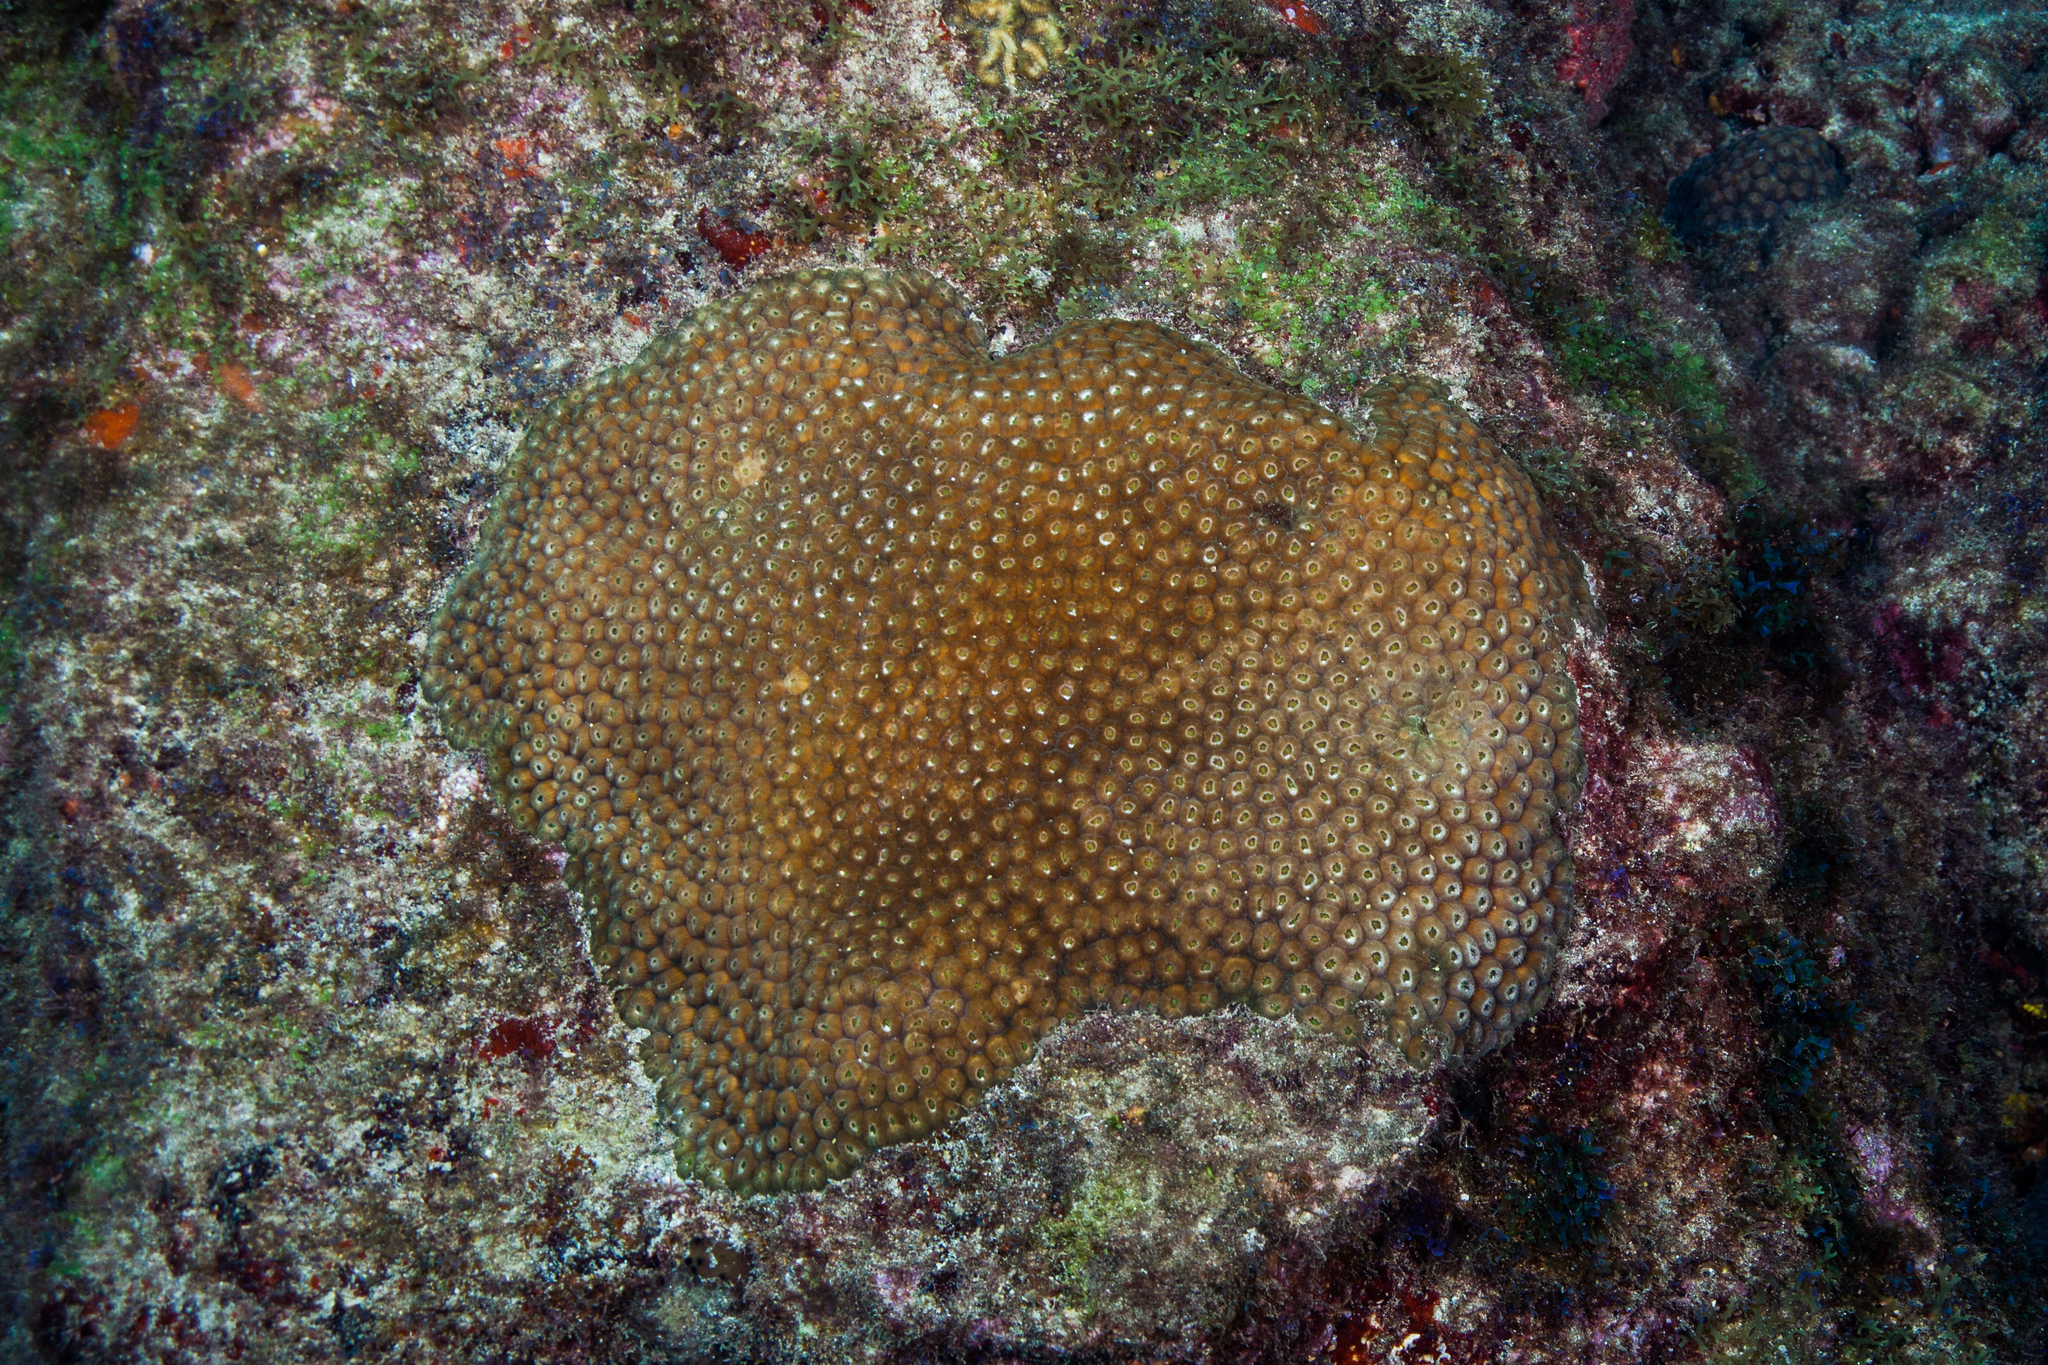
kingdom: Animalia
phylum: Cnidaria
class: Anthozoa
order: Scleractinia
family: Montastraeidae
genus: Montastraea
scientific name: Montastraea cavernosa
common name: Great star coral
